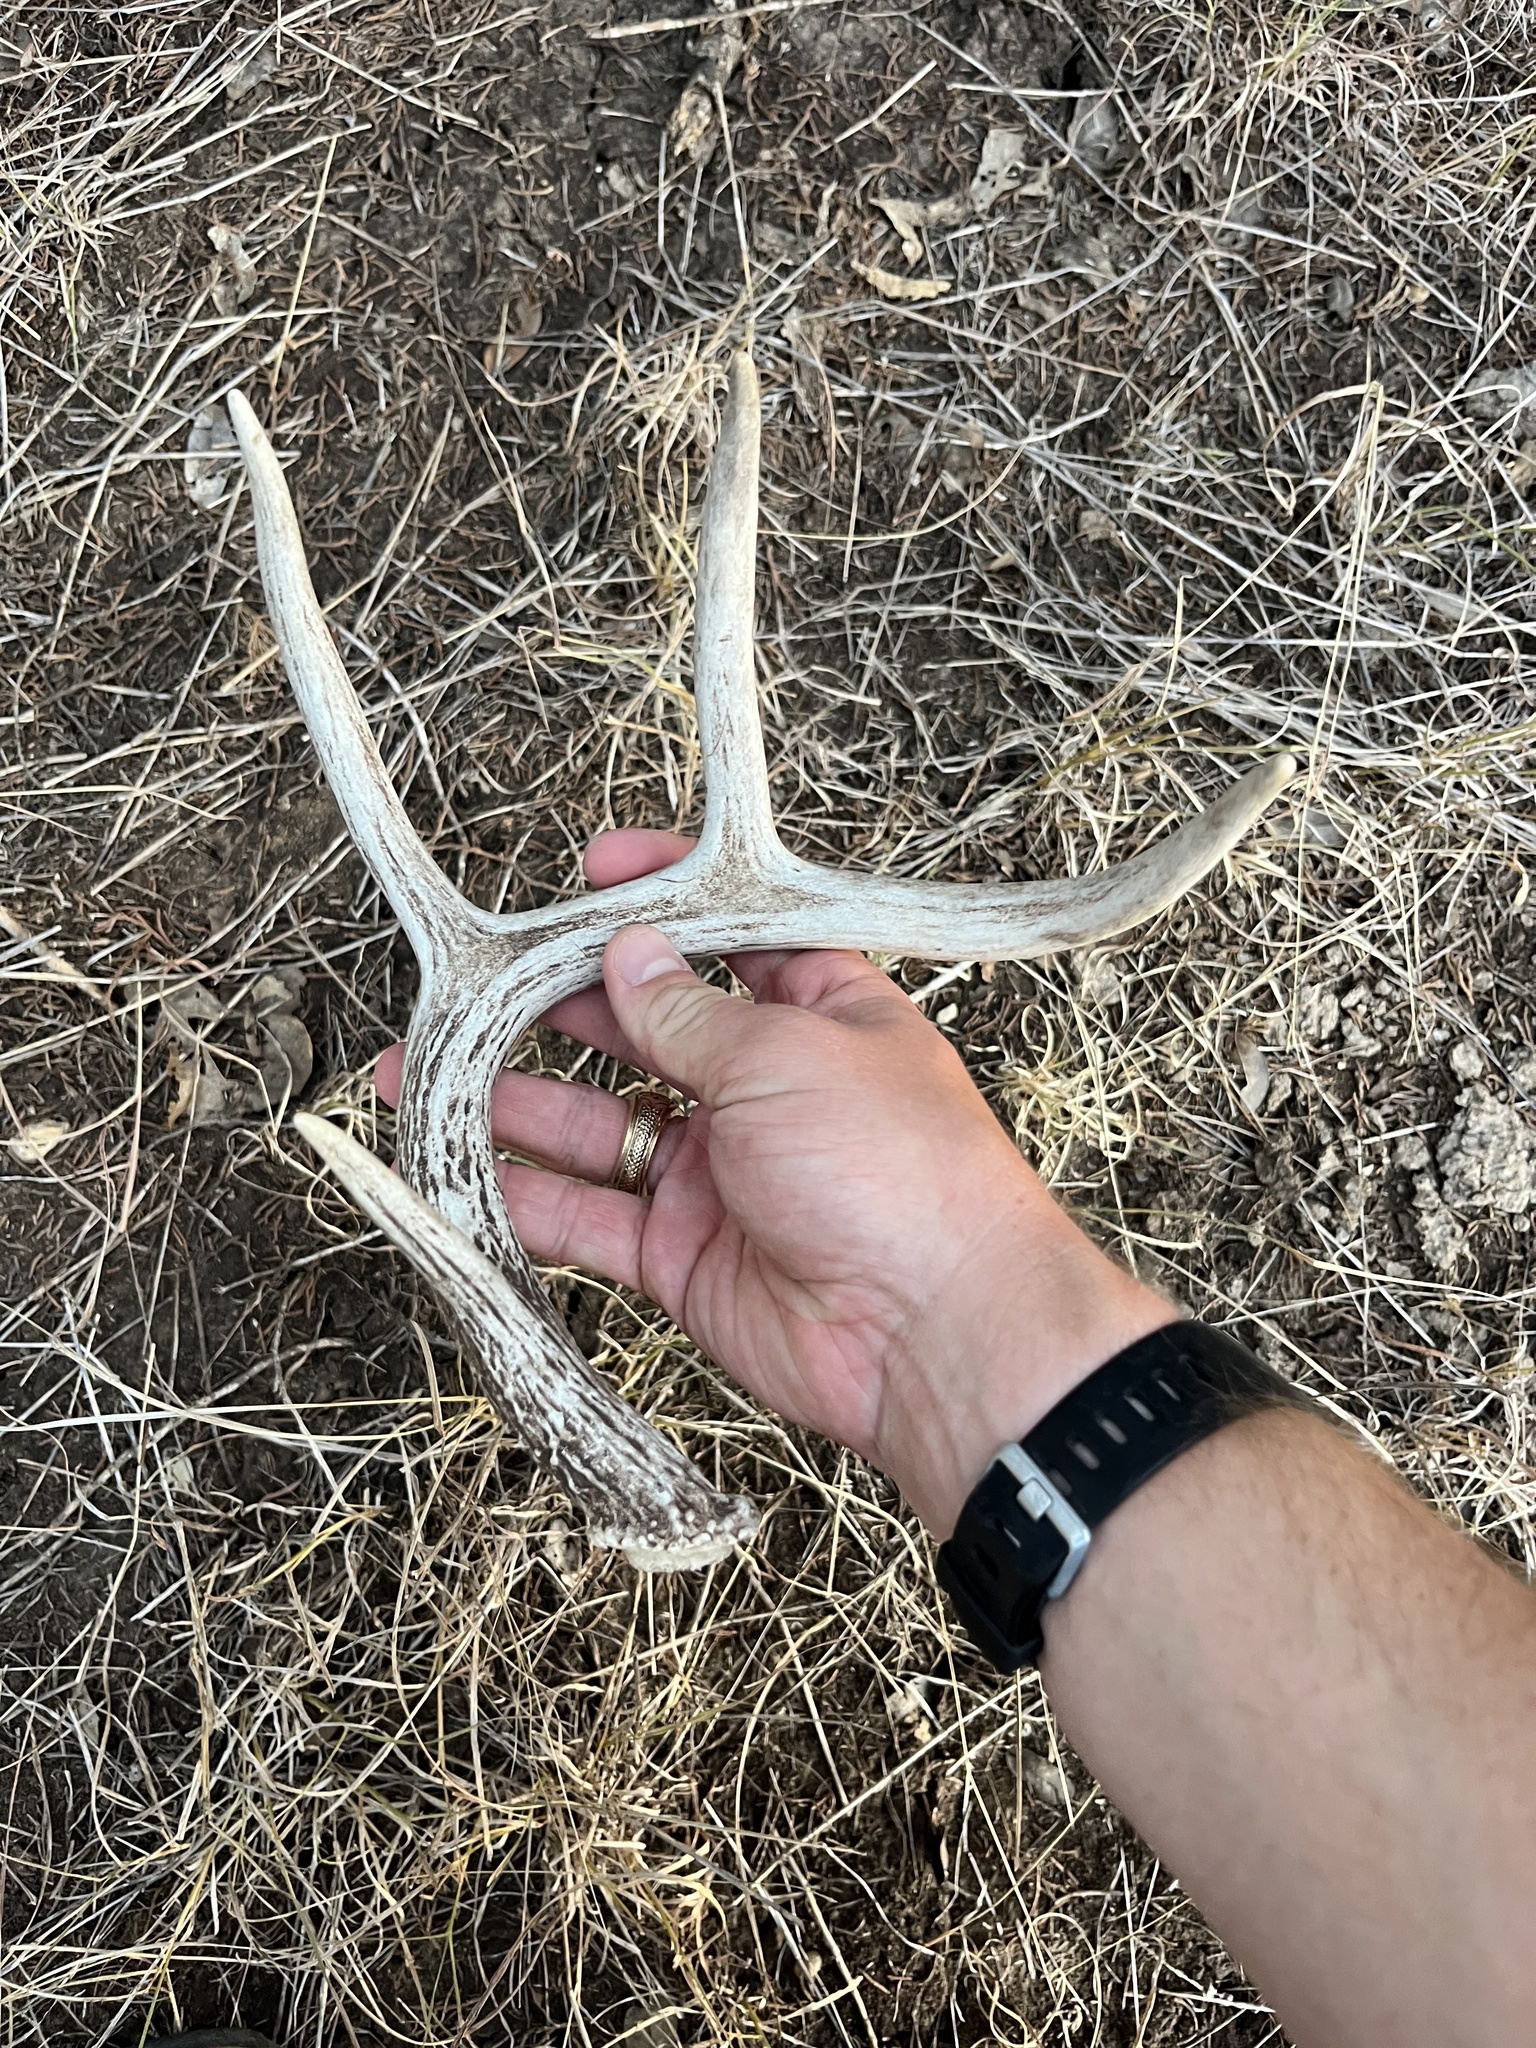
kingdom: Animalia
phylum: Chordata
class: Mammalia
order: Artiodactyla
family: Cervidae
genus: Odocoileus
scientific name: Odocoileus virginianus
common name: White-tailed deer
